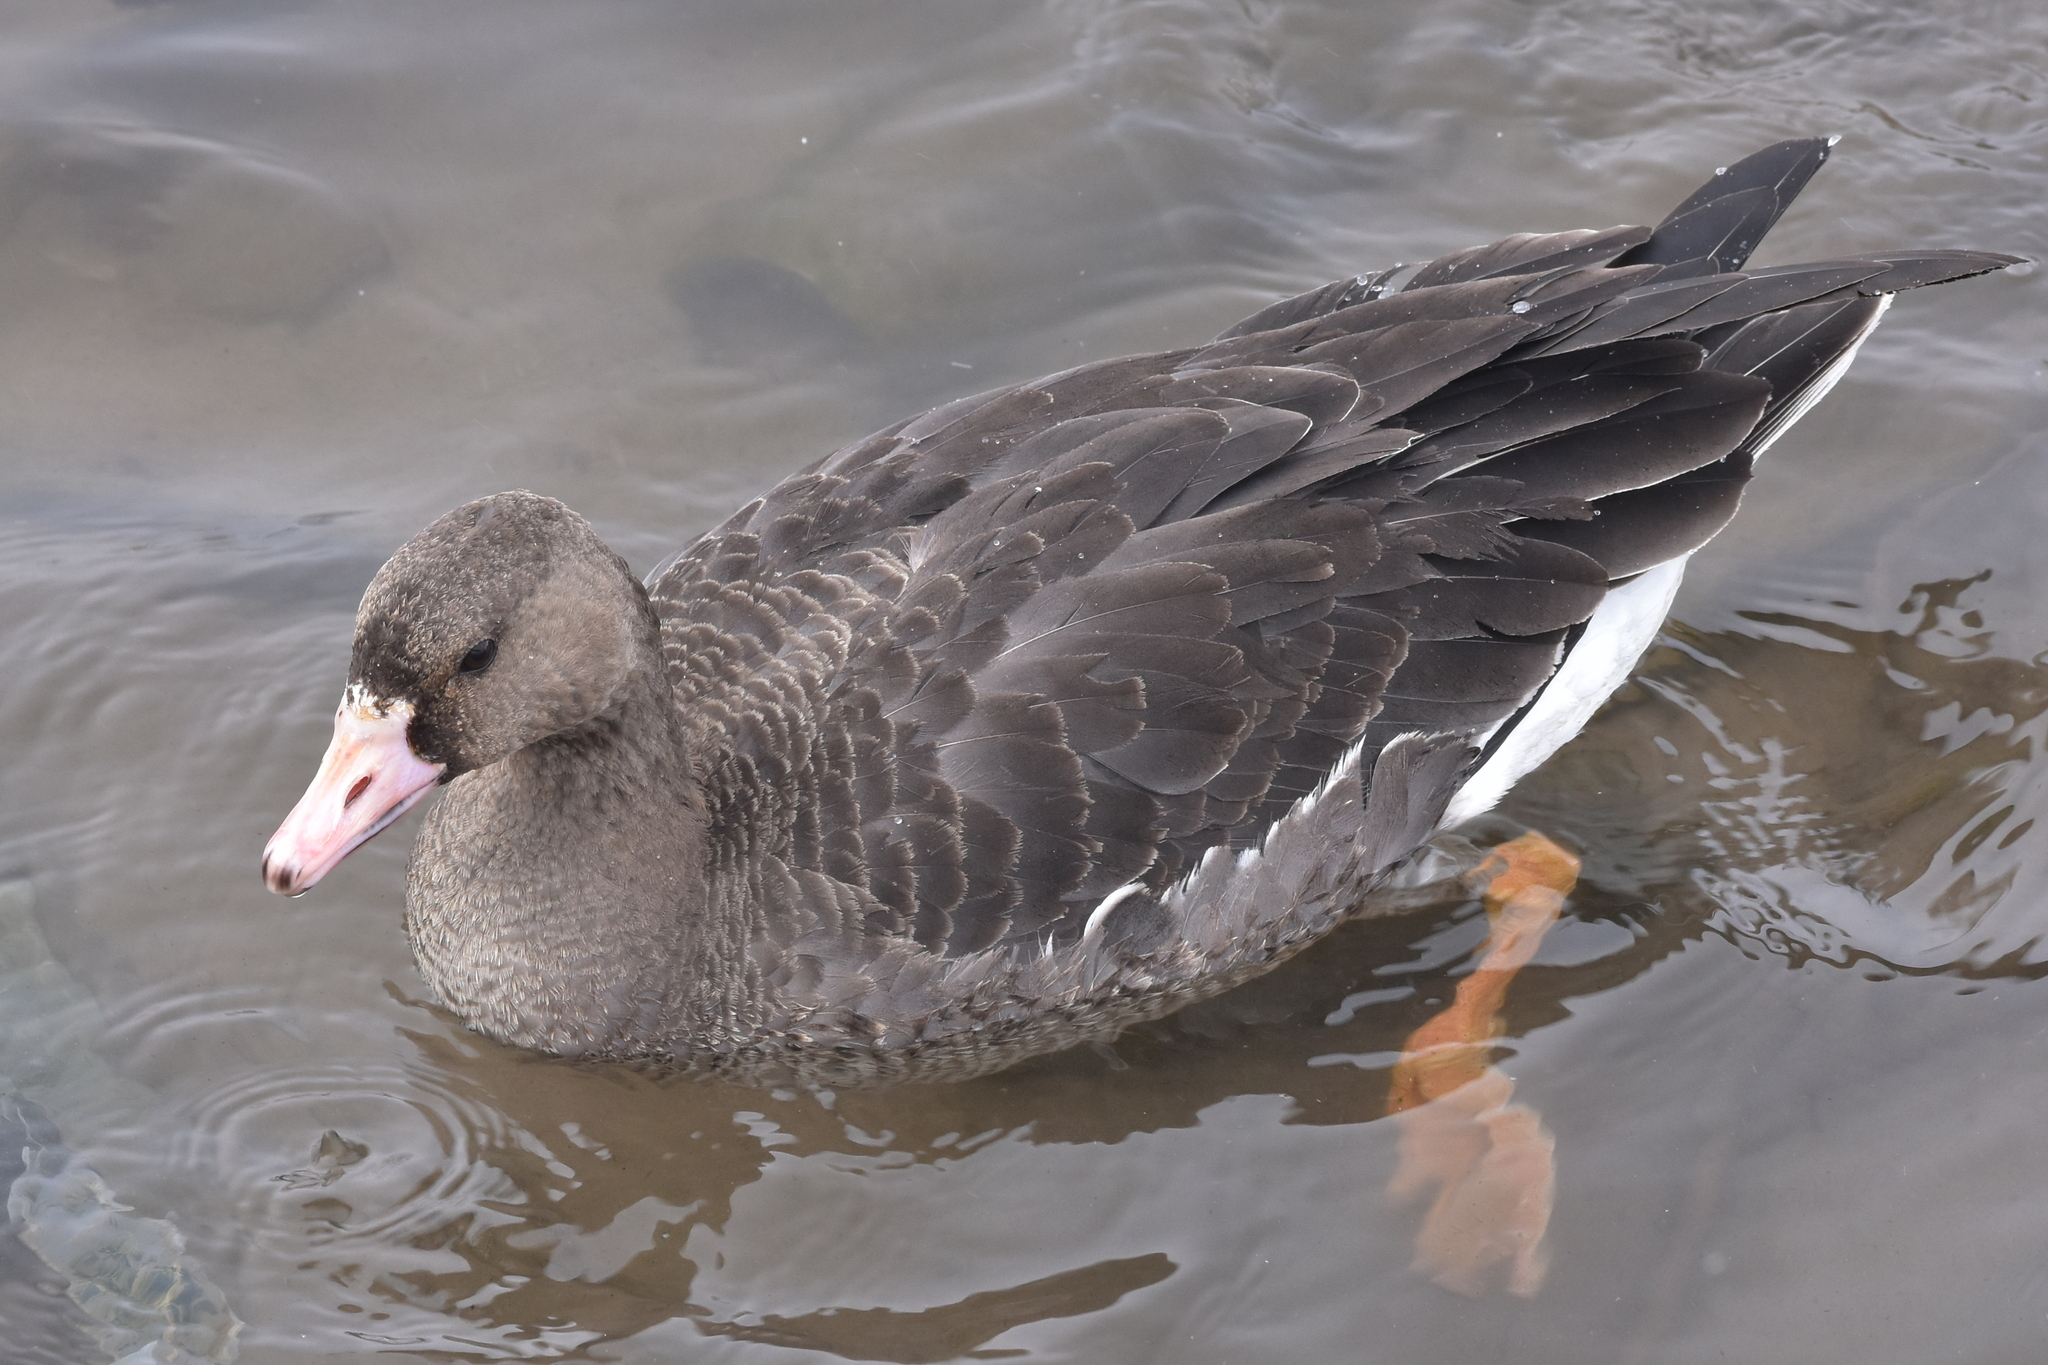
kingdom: Animalia
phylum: Chordata
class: Aves
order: Anseriformes
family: Anatidae
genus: Anser
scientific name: Anser albifrons
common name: Greater white-fronted goose
